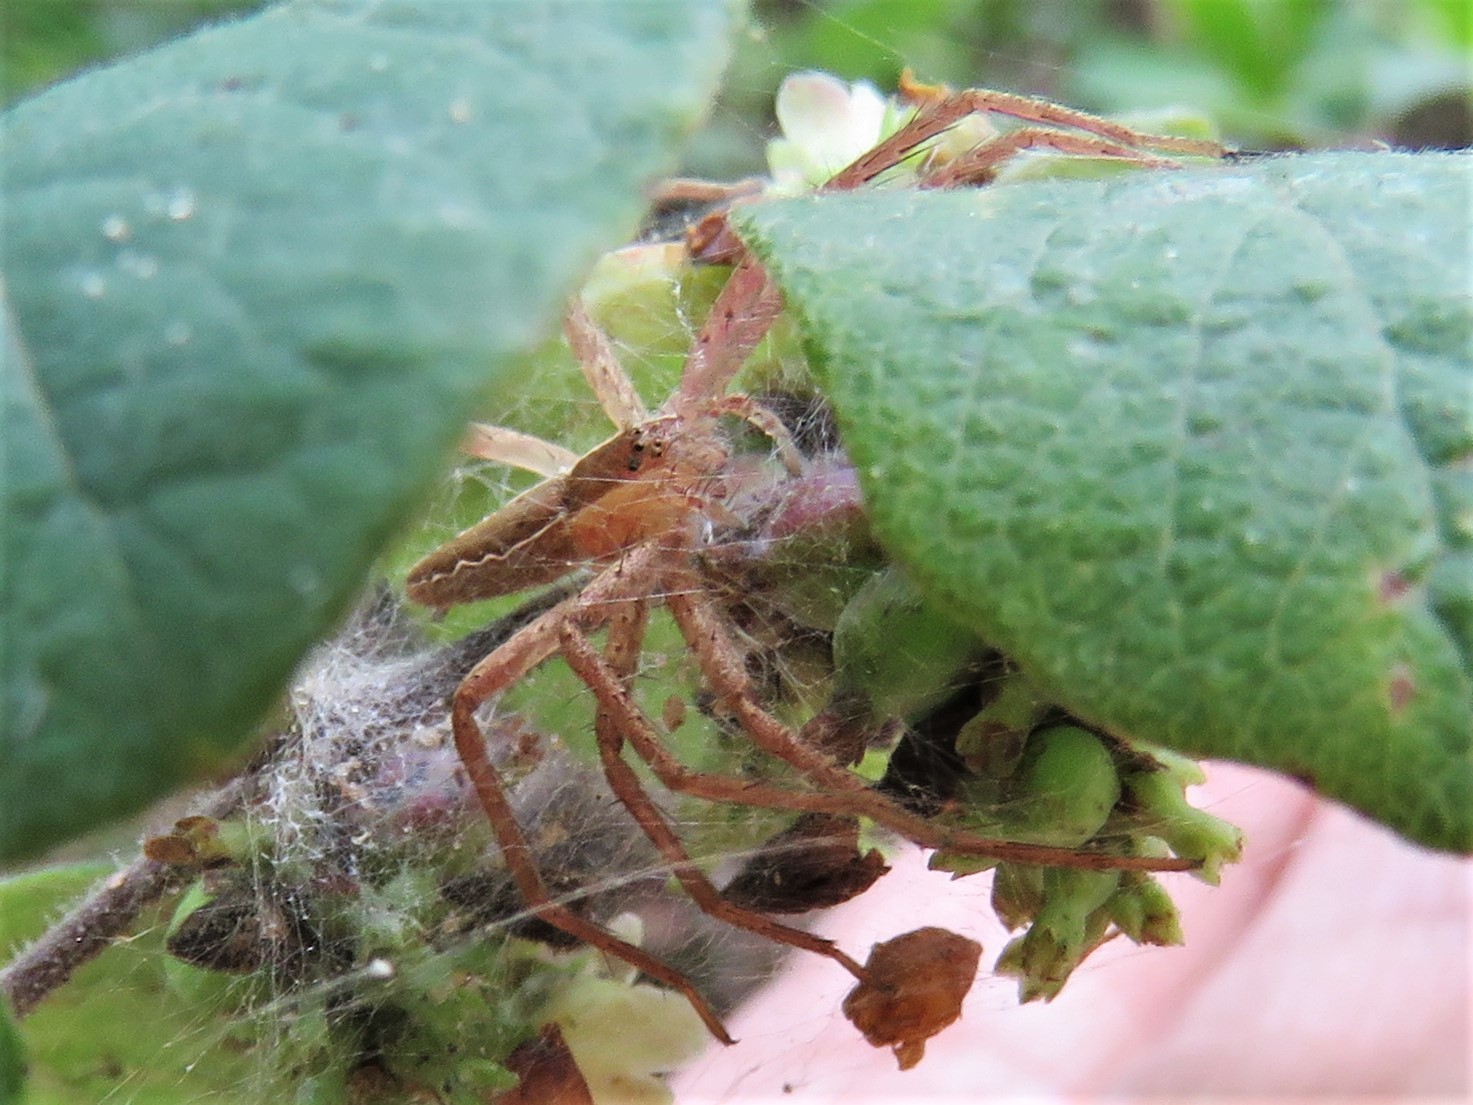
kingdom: Animalia
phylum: Arthropoda
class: Arachnida
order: Araneae
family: Pisauridae
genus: Pisaurina
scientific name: Pisaurina mira
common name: American nursery web spider
